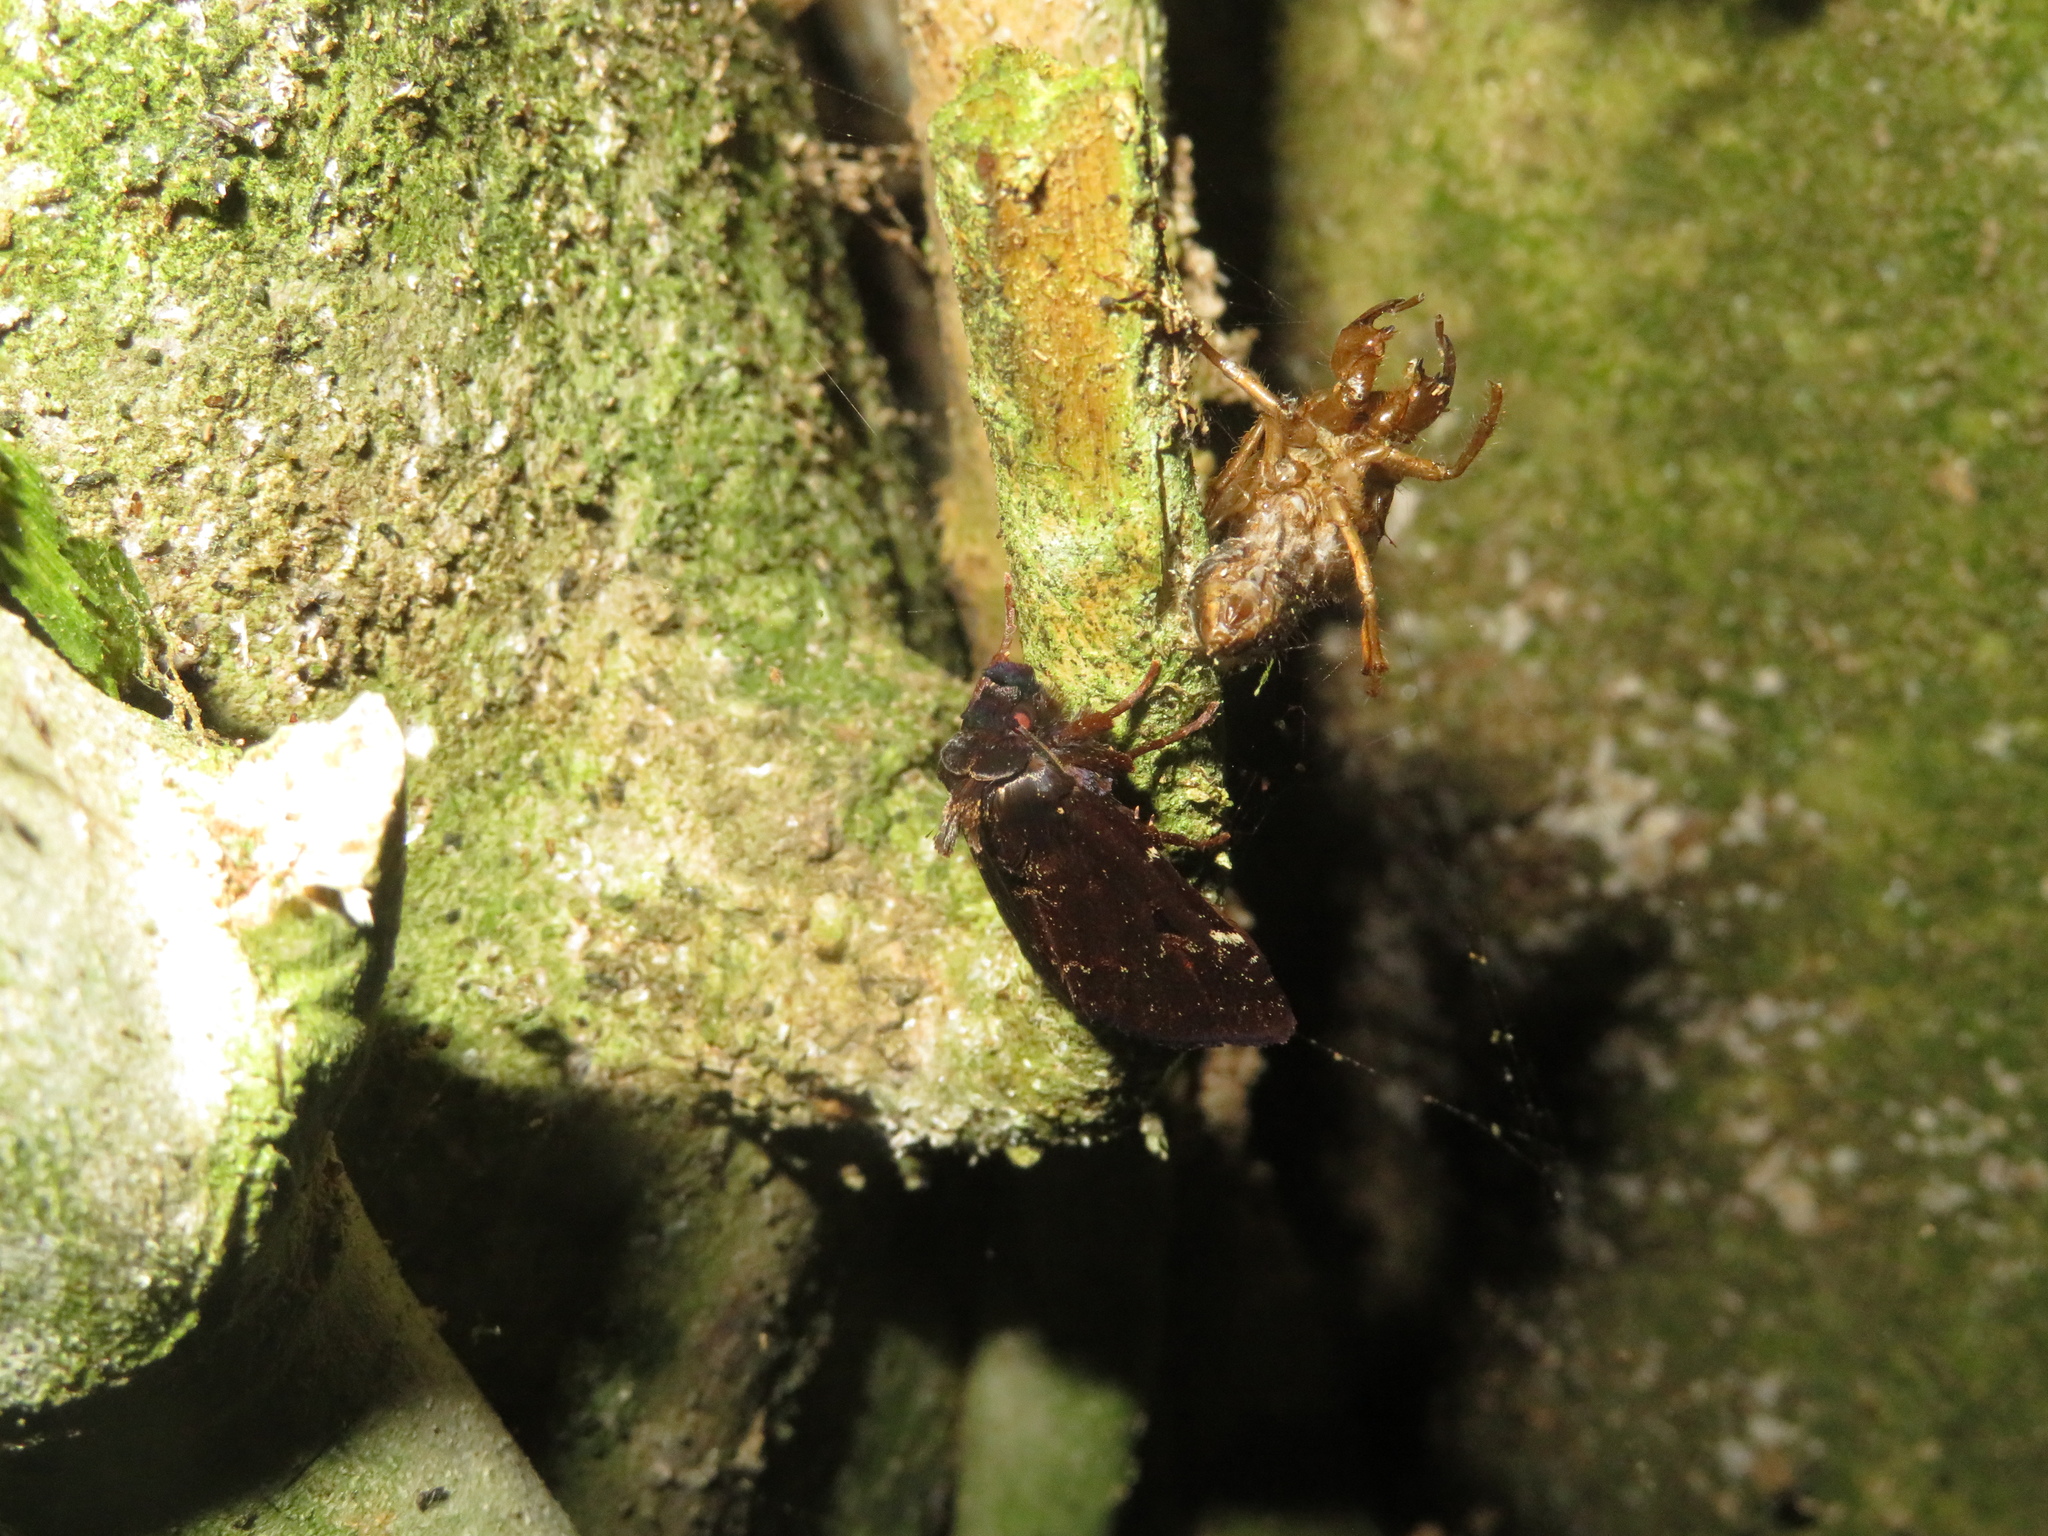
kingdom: Animalia
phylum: Arthropoda
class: Insecta
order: Lepidoptera
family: Noctuidae
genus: Austramathes
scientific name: Austramathes purpurea
